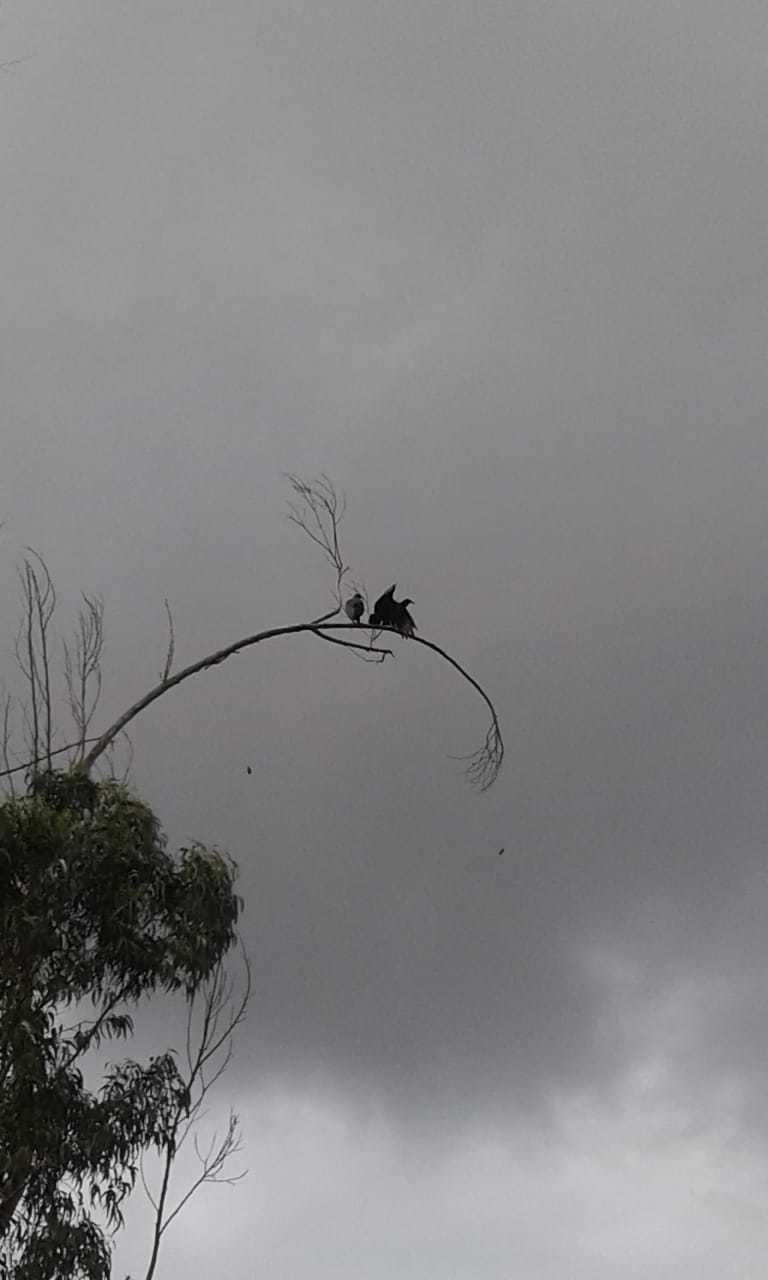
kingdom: Animalia
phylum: Chordata
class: Aves
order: Accipitriformes
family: Cathartidae
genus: Coragyps
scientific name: Coragyps atratus
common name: Black vulture
